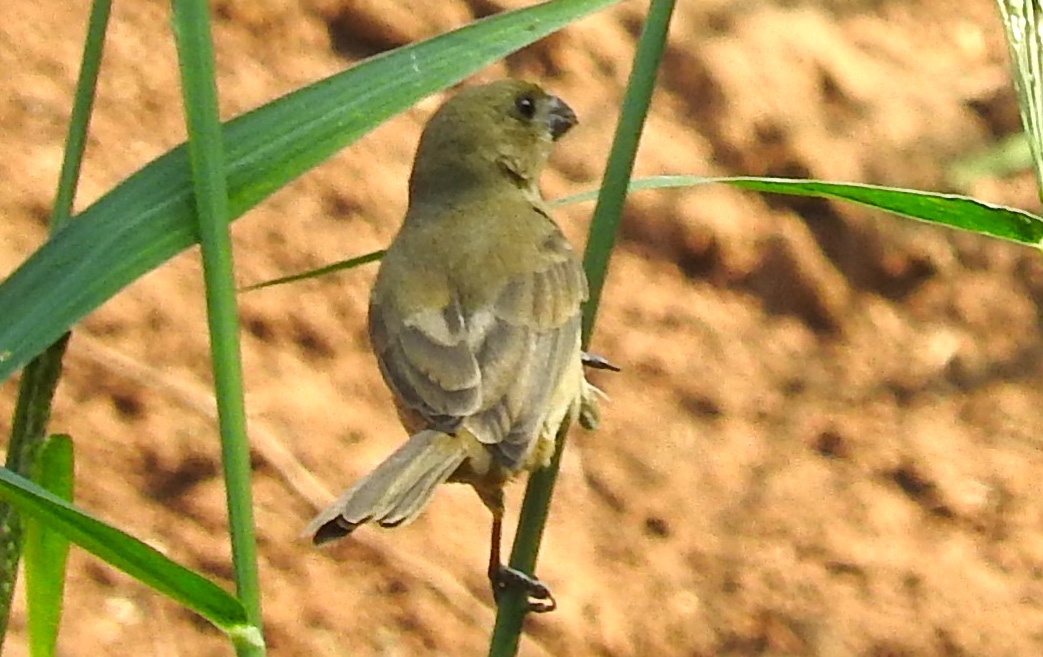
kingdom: Animalia
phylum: Chordata
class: Aves
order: Passeriformes
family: Thraupidae
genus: Sporophila
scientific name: Sporophila torqueola
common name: White-collared seedeater
